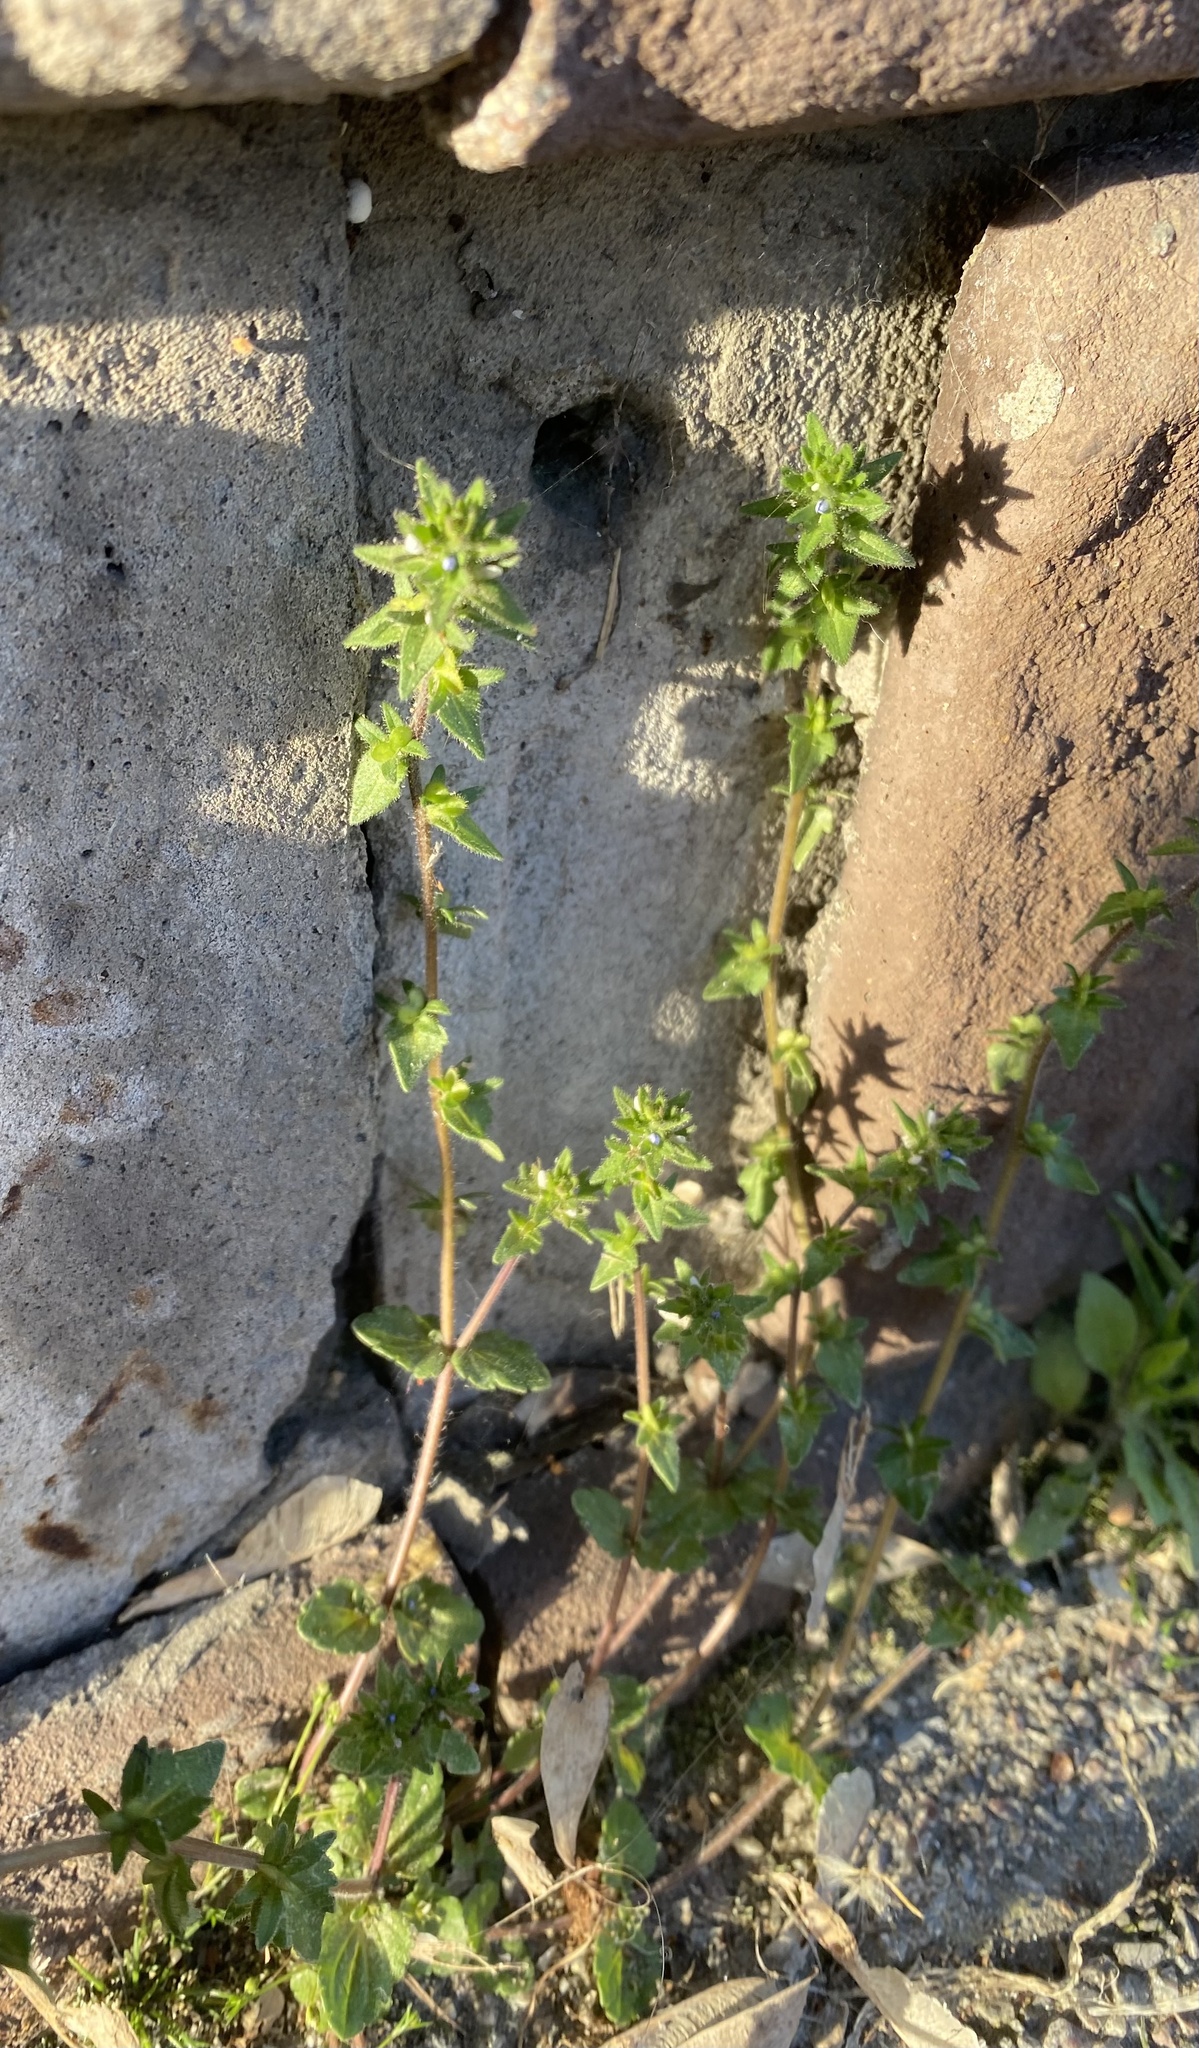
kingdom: Plantae
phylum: Tracheophyta
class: Magnoliopsida
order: Lamiales
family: Plantaginaceae
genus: Veronica
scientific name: Veronica arvensis
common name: Corn speedwell
